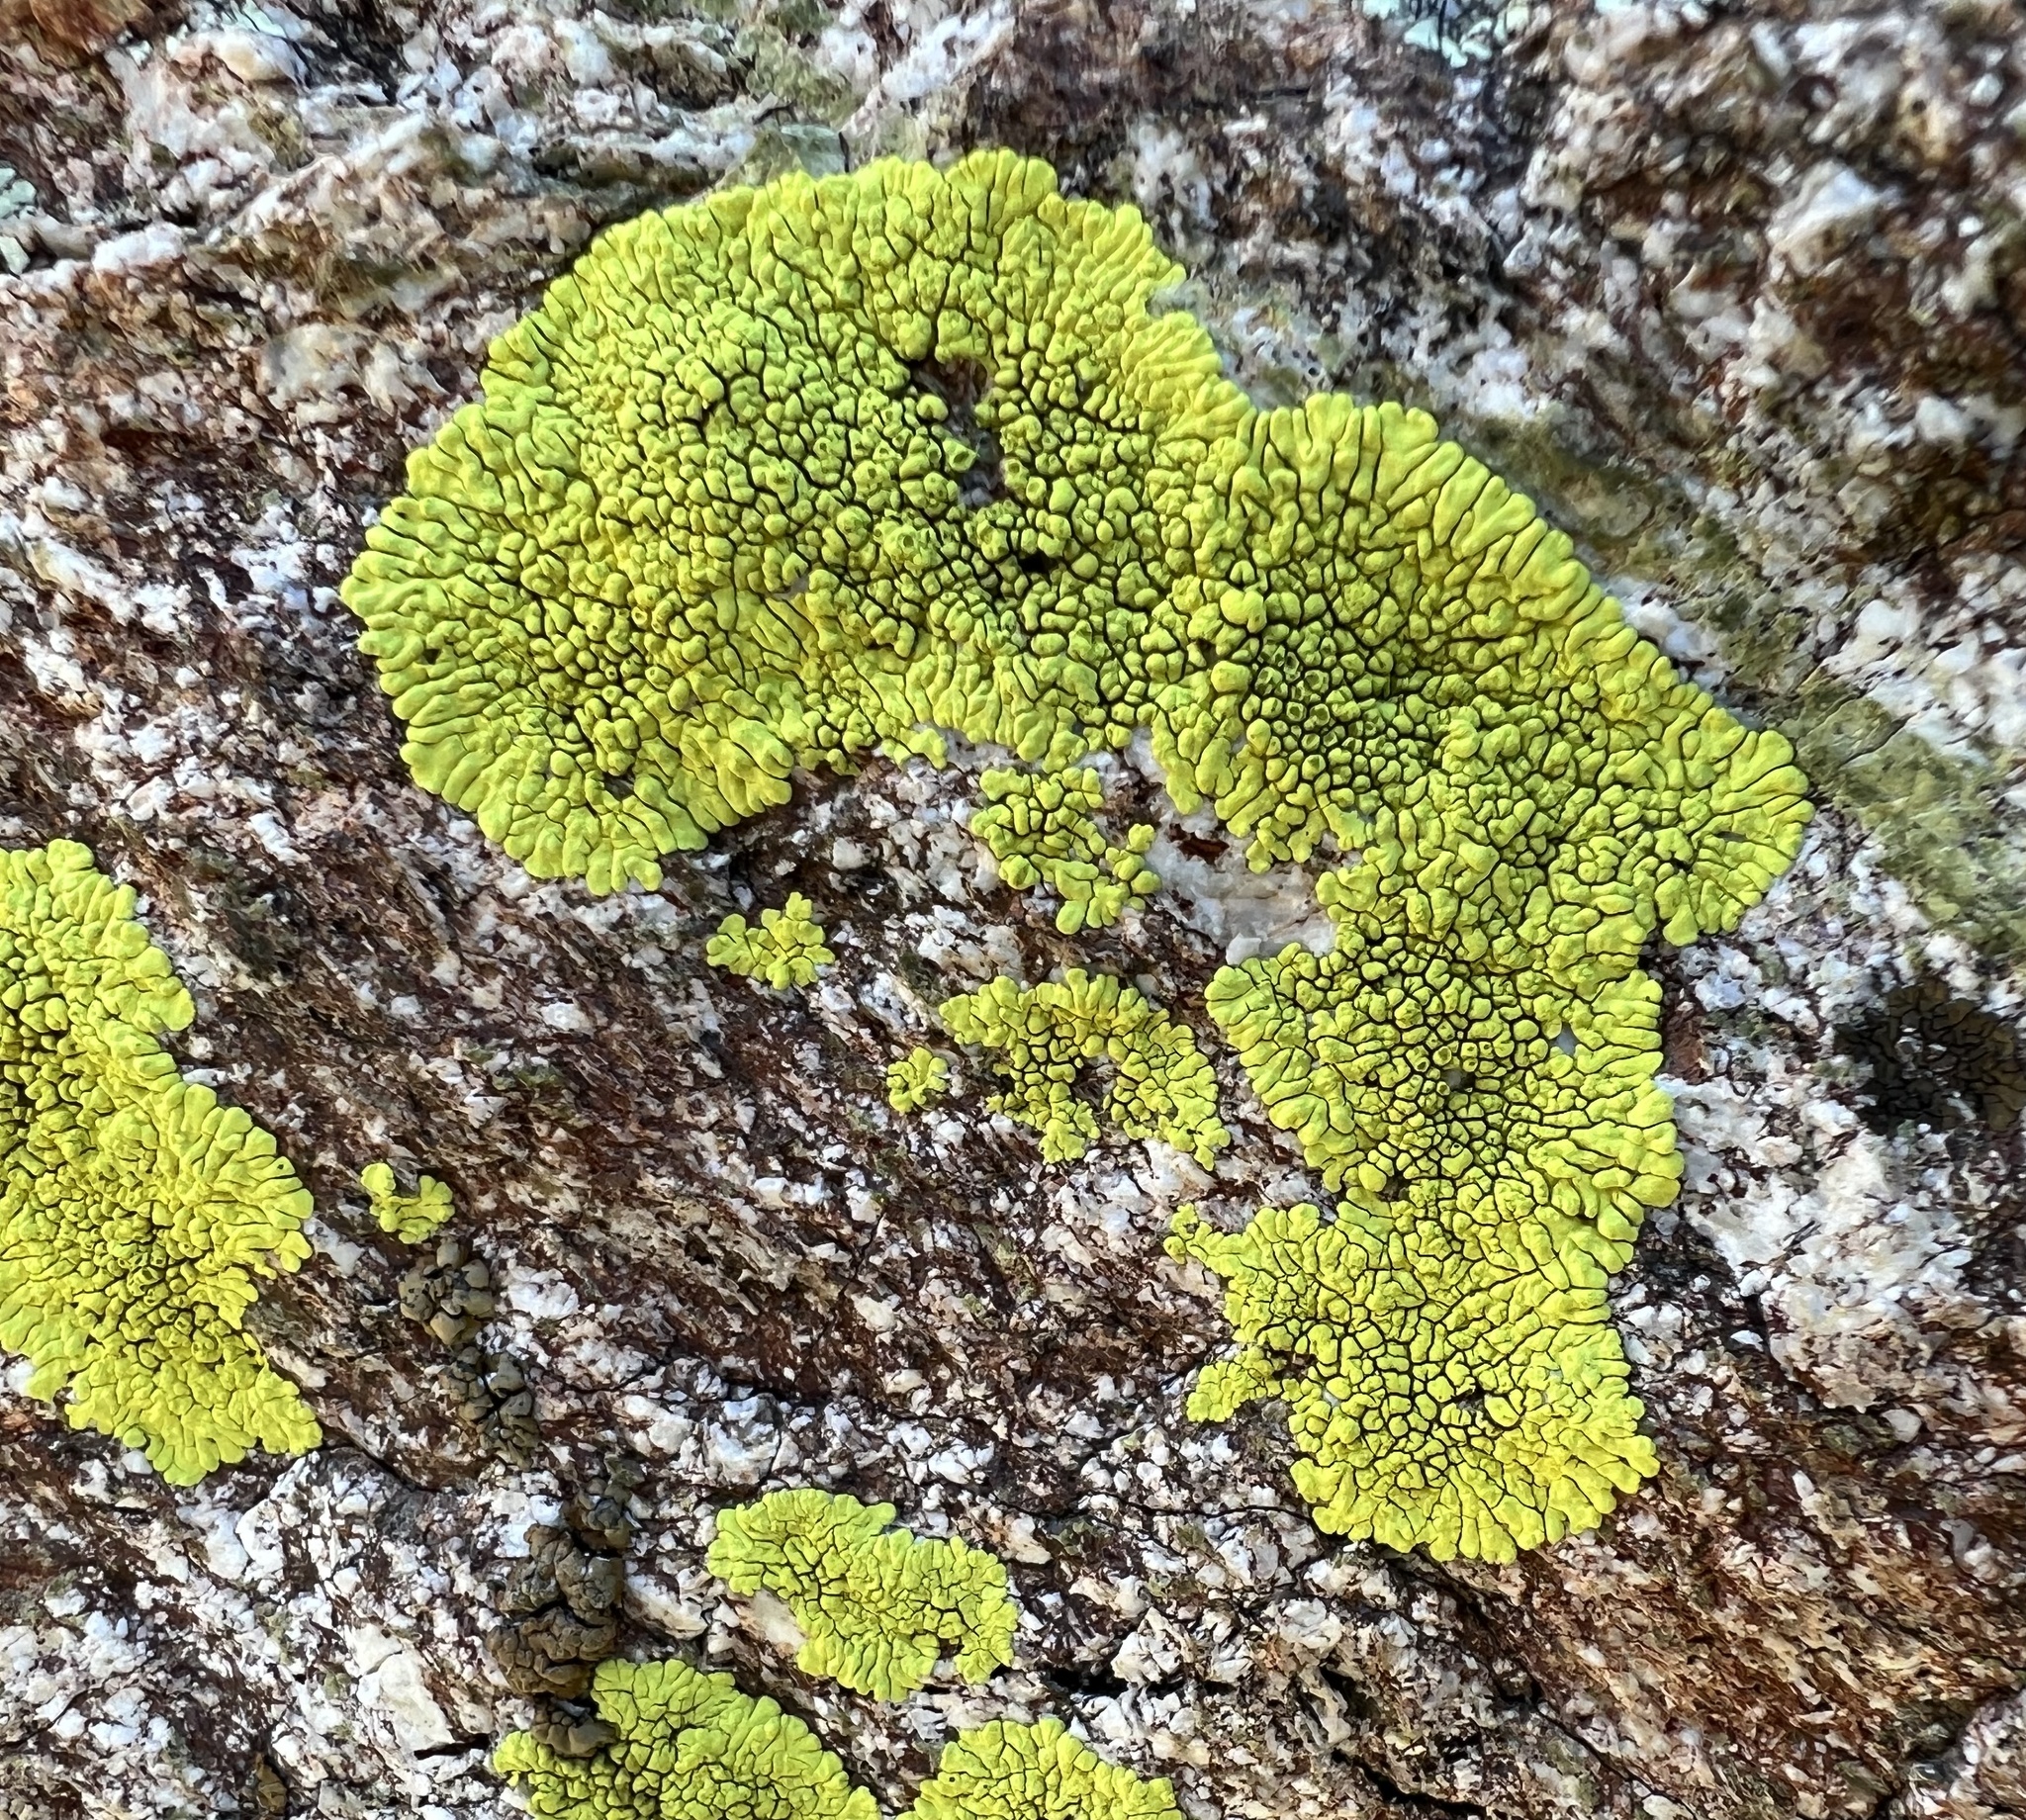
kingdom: Fungi
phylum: Ascomycota
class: Lecanoromycetes
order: Acarosporales
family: Acarosporaceae
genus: Pleopsidium
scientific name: Pleopsidium oxytonum
